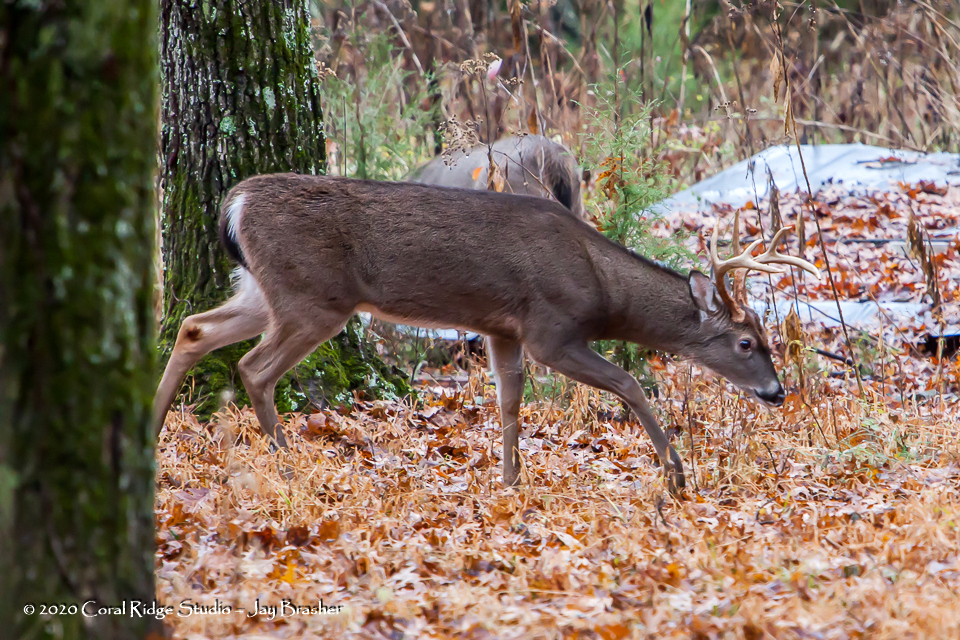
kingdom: Animalia
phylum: Chordata
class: Mammalia
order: Artiodactyla
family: Cervidae
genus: Odocoileus
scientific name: Odocoileus virginianus
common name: White-tailed deer
